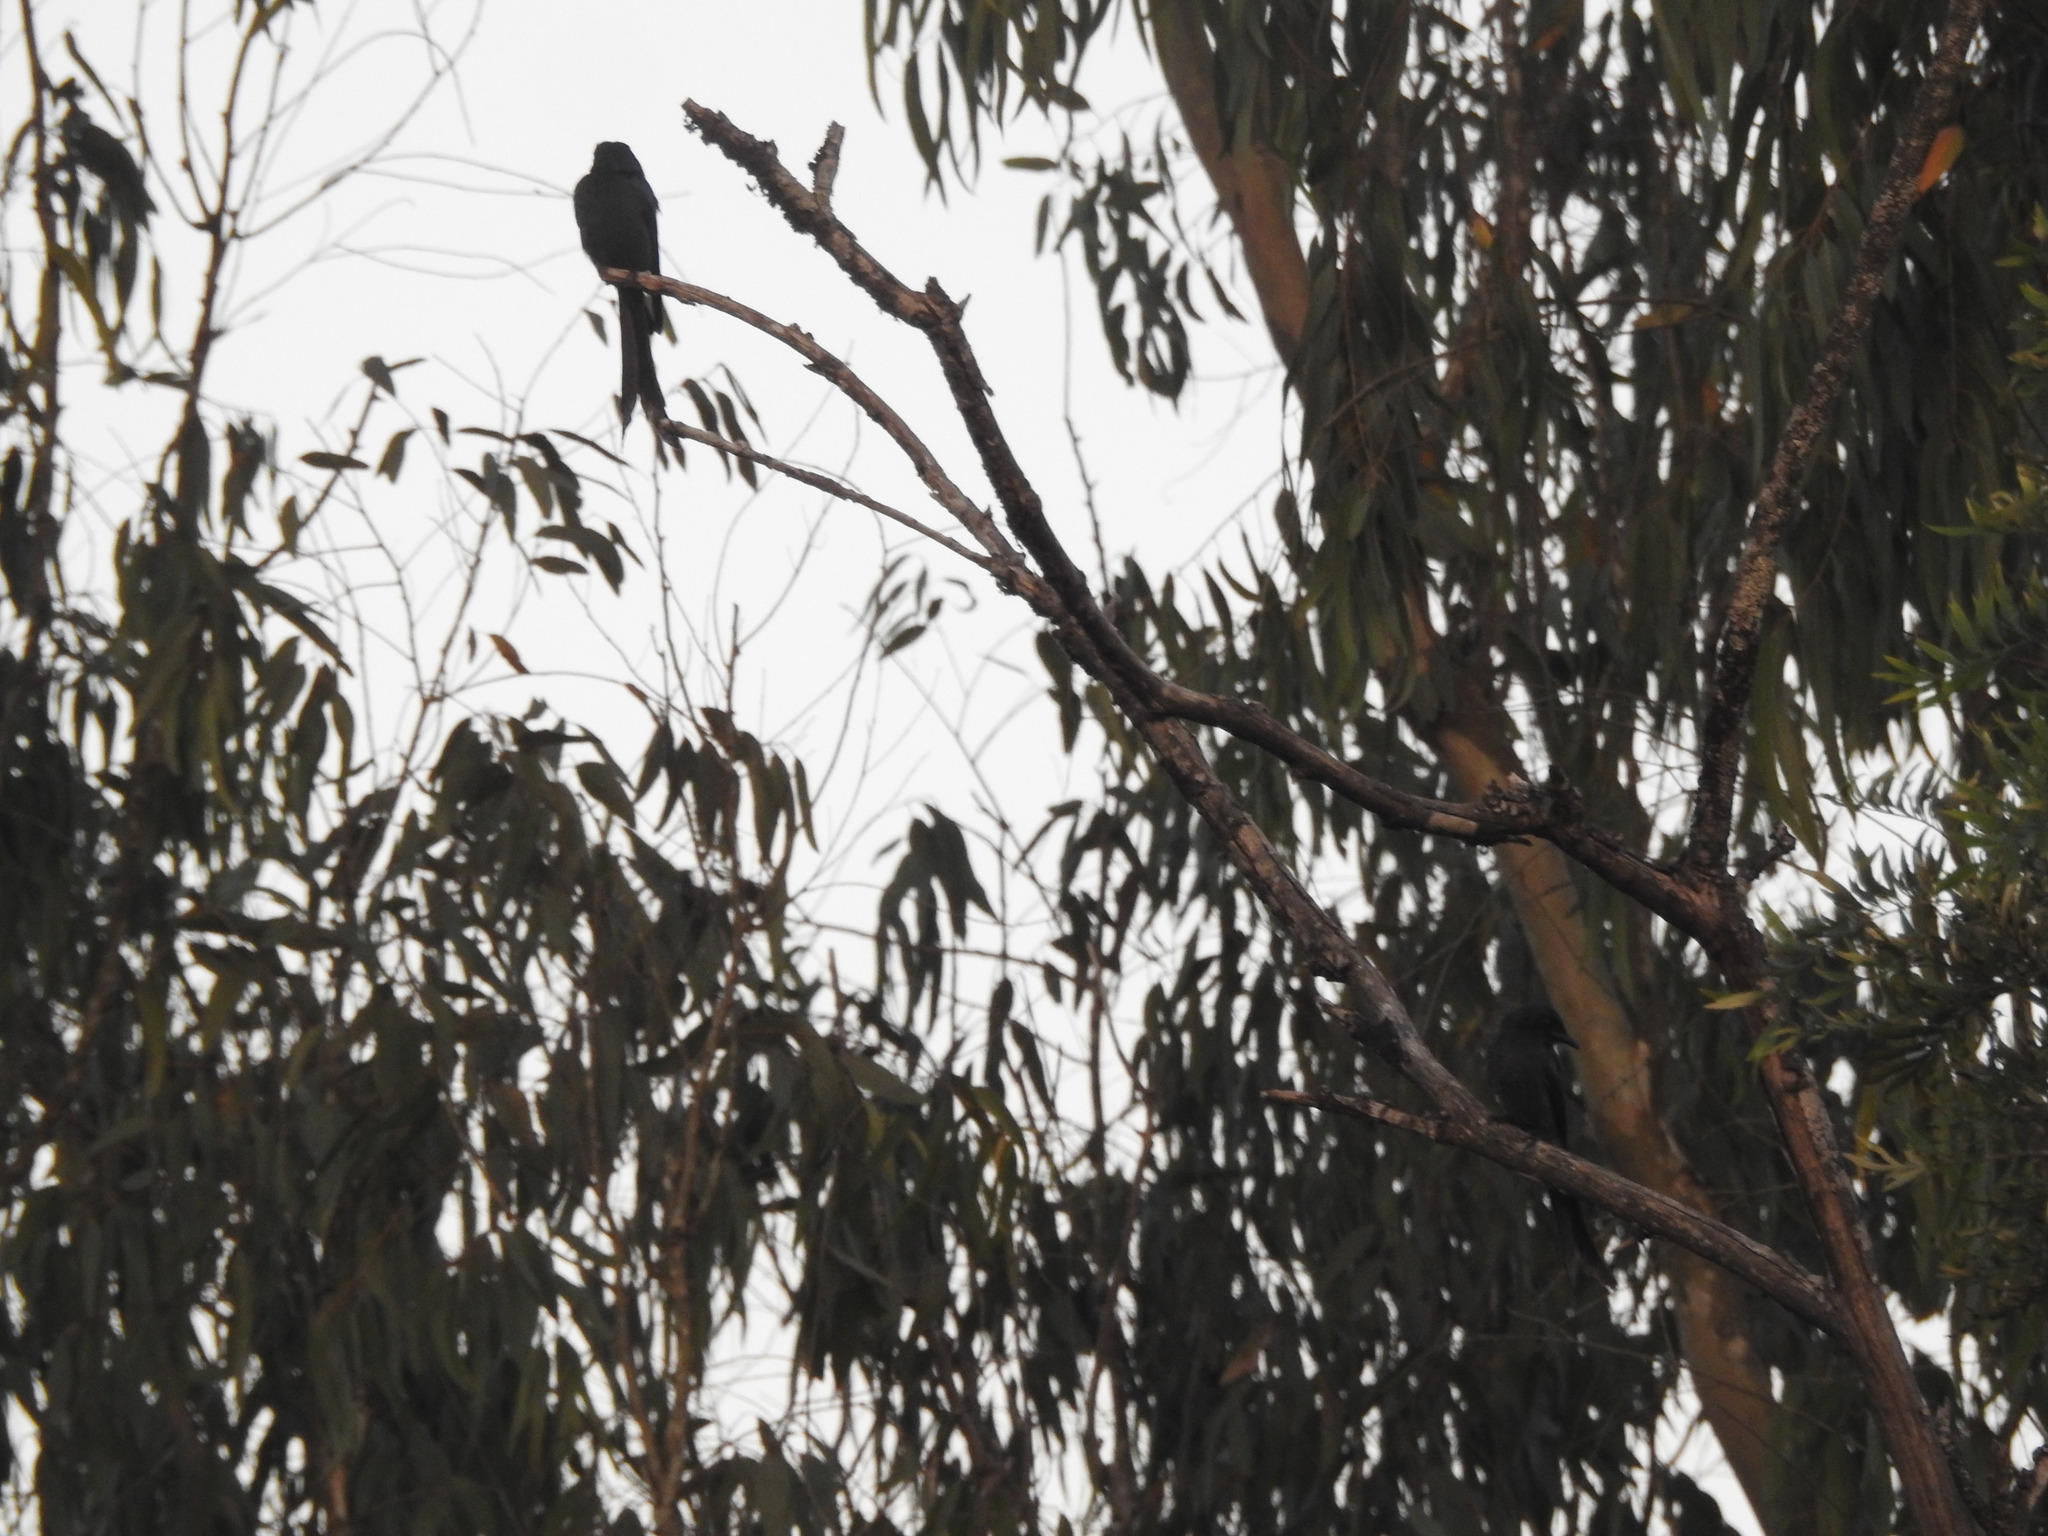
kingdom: Animalia
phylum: Chordata
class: Aves
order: Passeriformes
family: Dicruridae
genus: Dicrurus
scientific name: Dicrurus leucophaeus
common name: Ashy drongo
